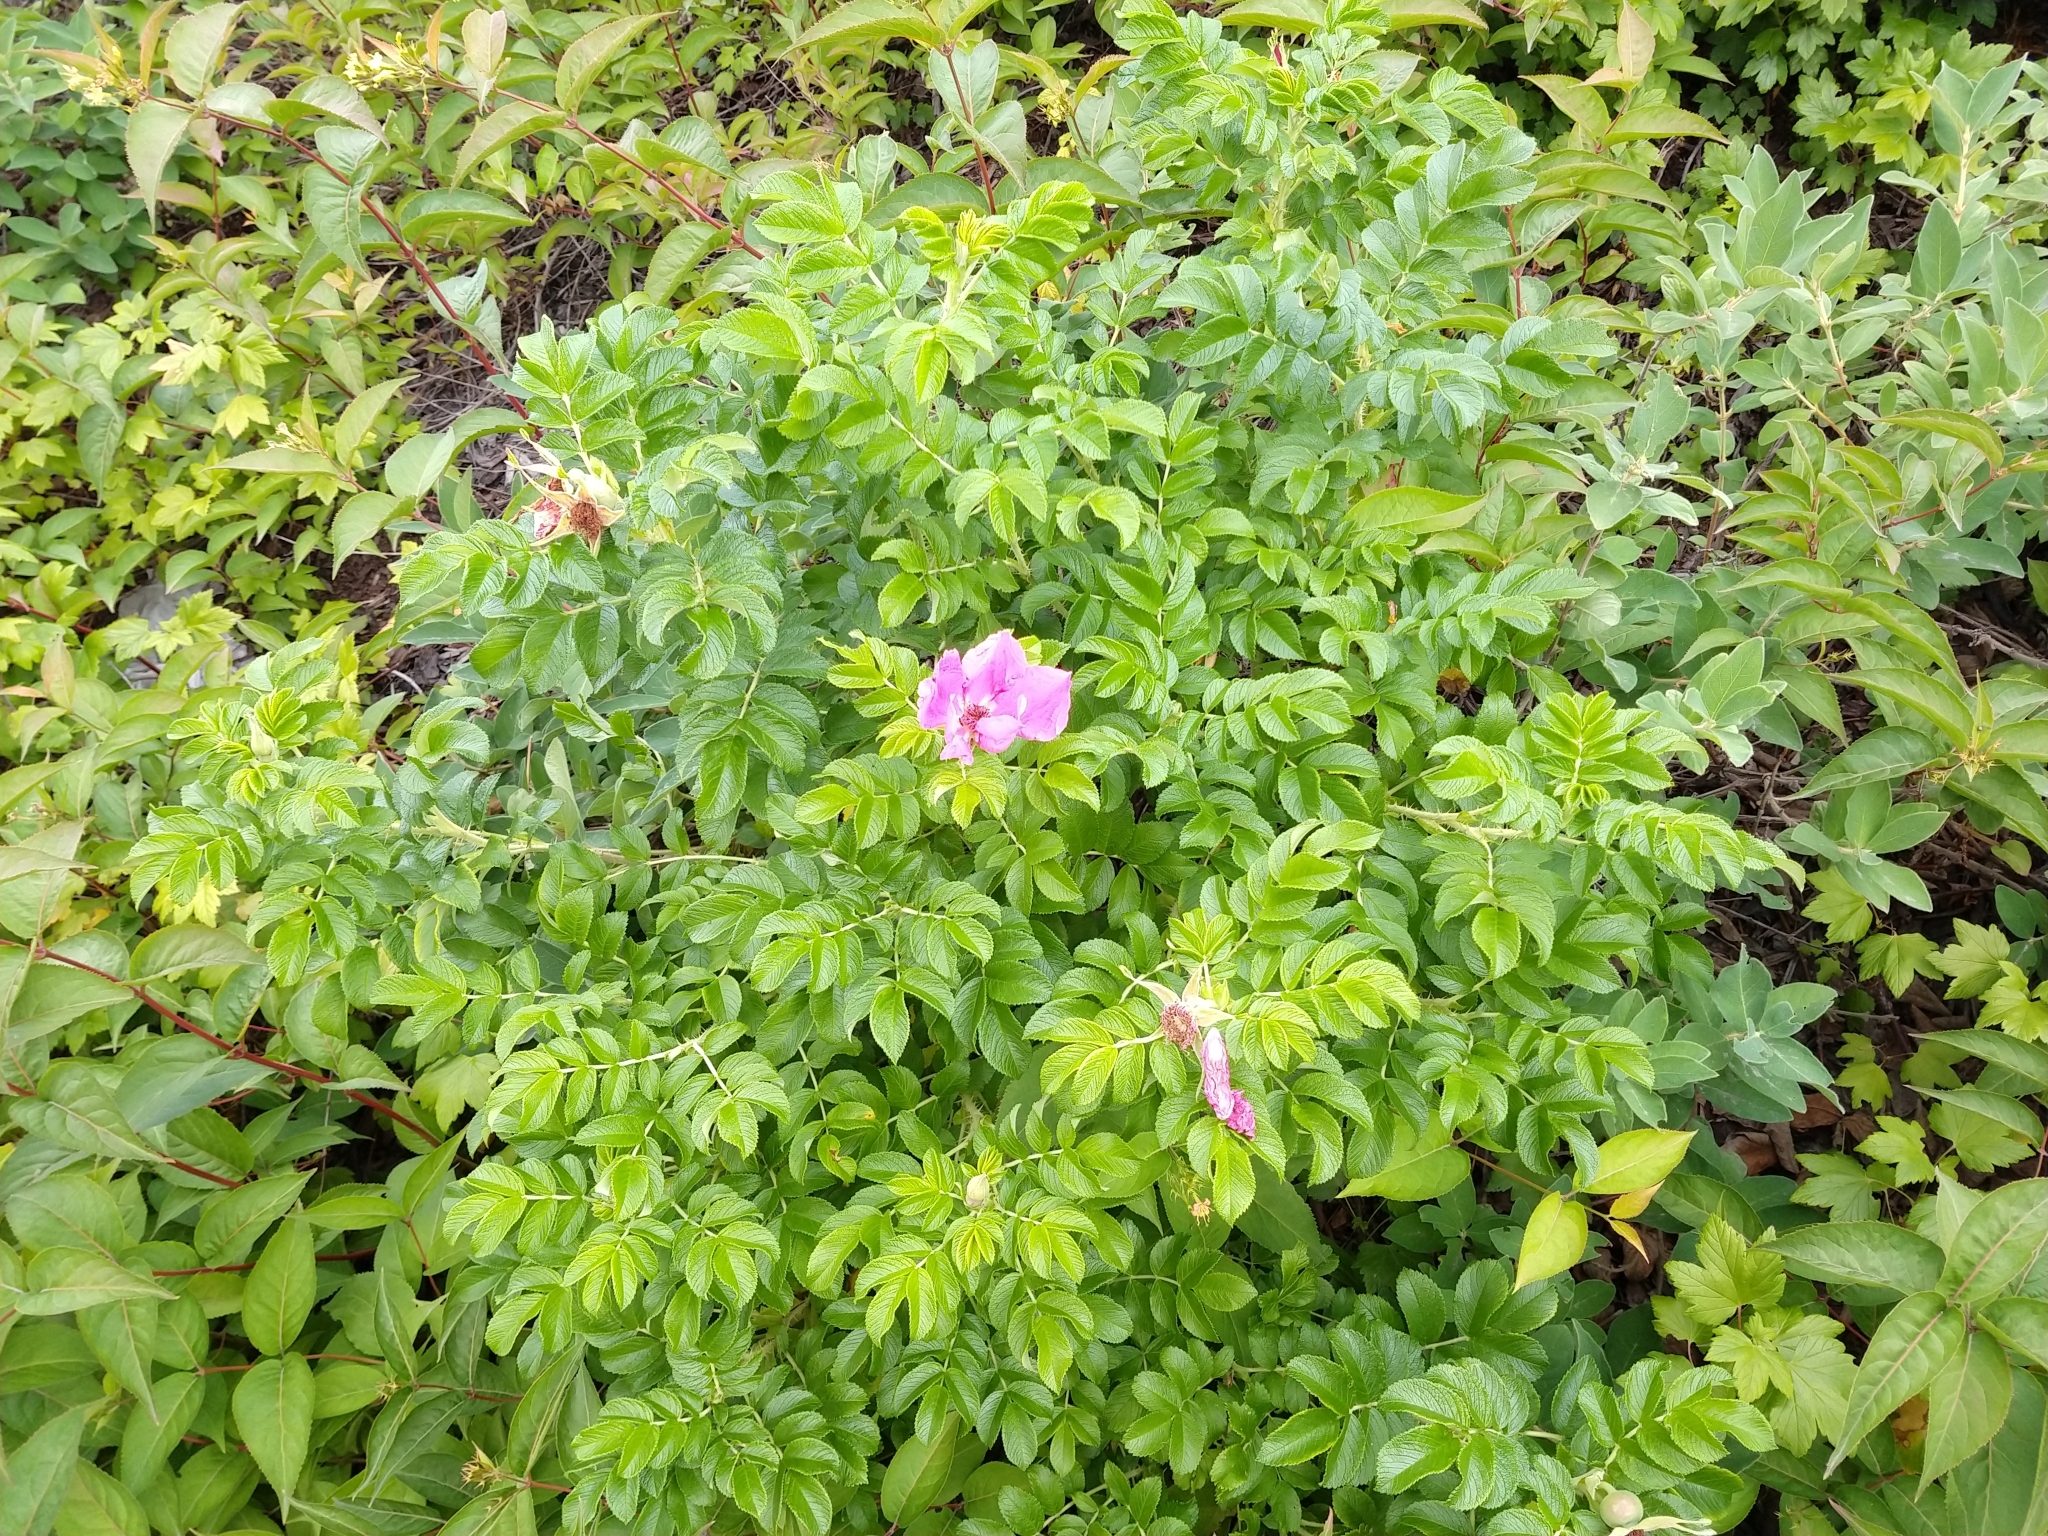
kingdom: Plantae
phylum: Tracheophyta
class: Magnoliopsida
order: Rosales
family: Rosaceae
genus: Rosa
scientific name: Rosa rugosa
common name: Japanese rose
